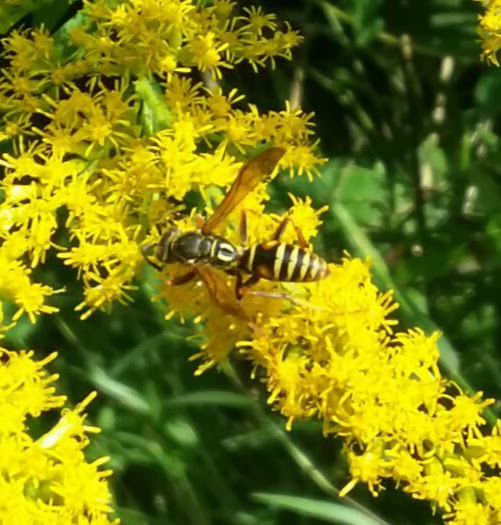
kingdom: Animalia
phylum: Arthropoda
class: Insecta
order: Hymenoptera
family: Eumenidae
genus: Polistes
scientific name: Polistes fuscatus
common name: Dark paper wasp
